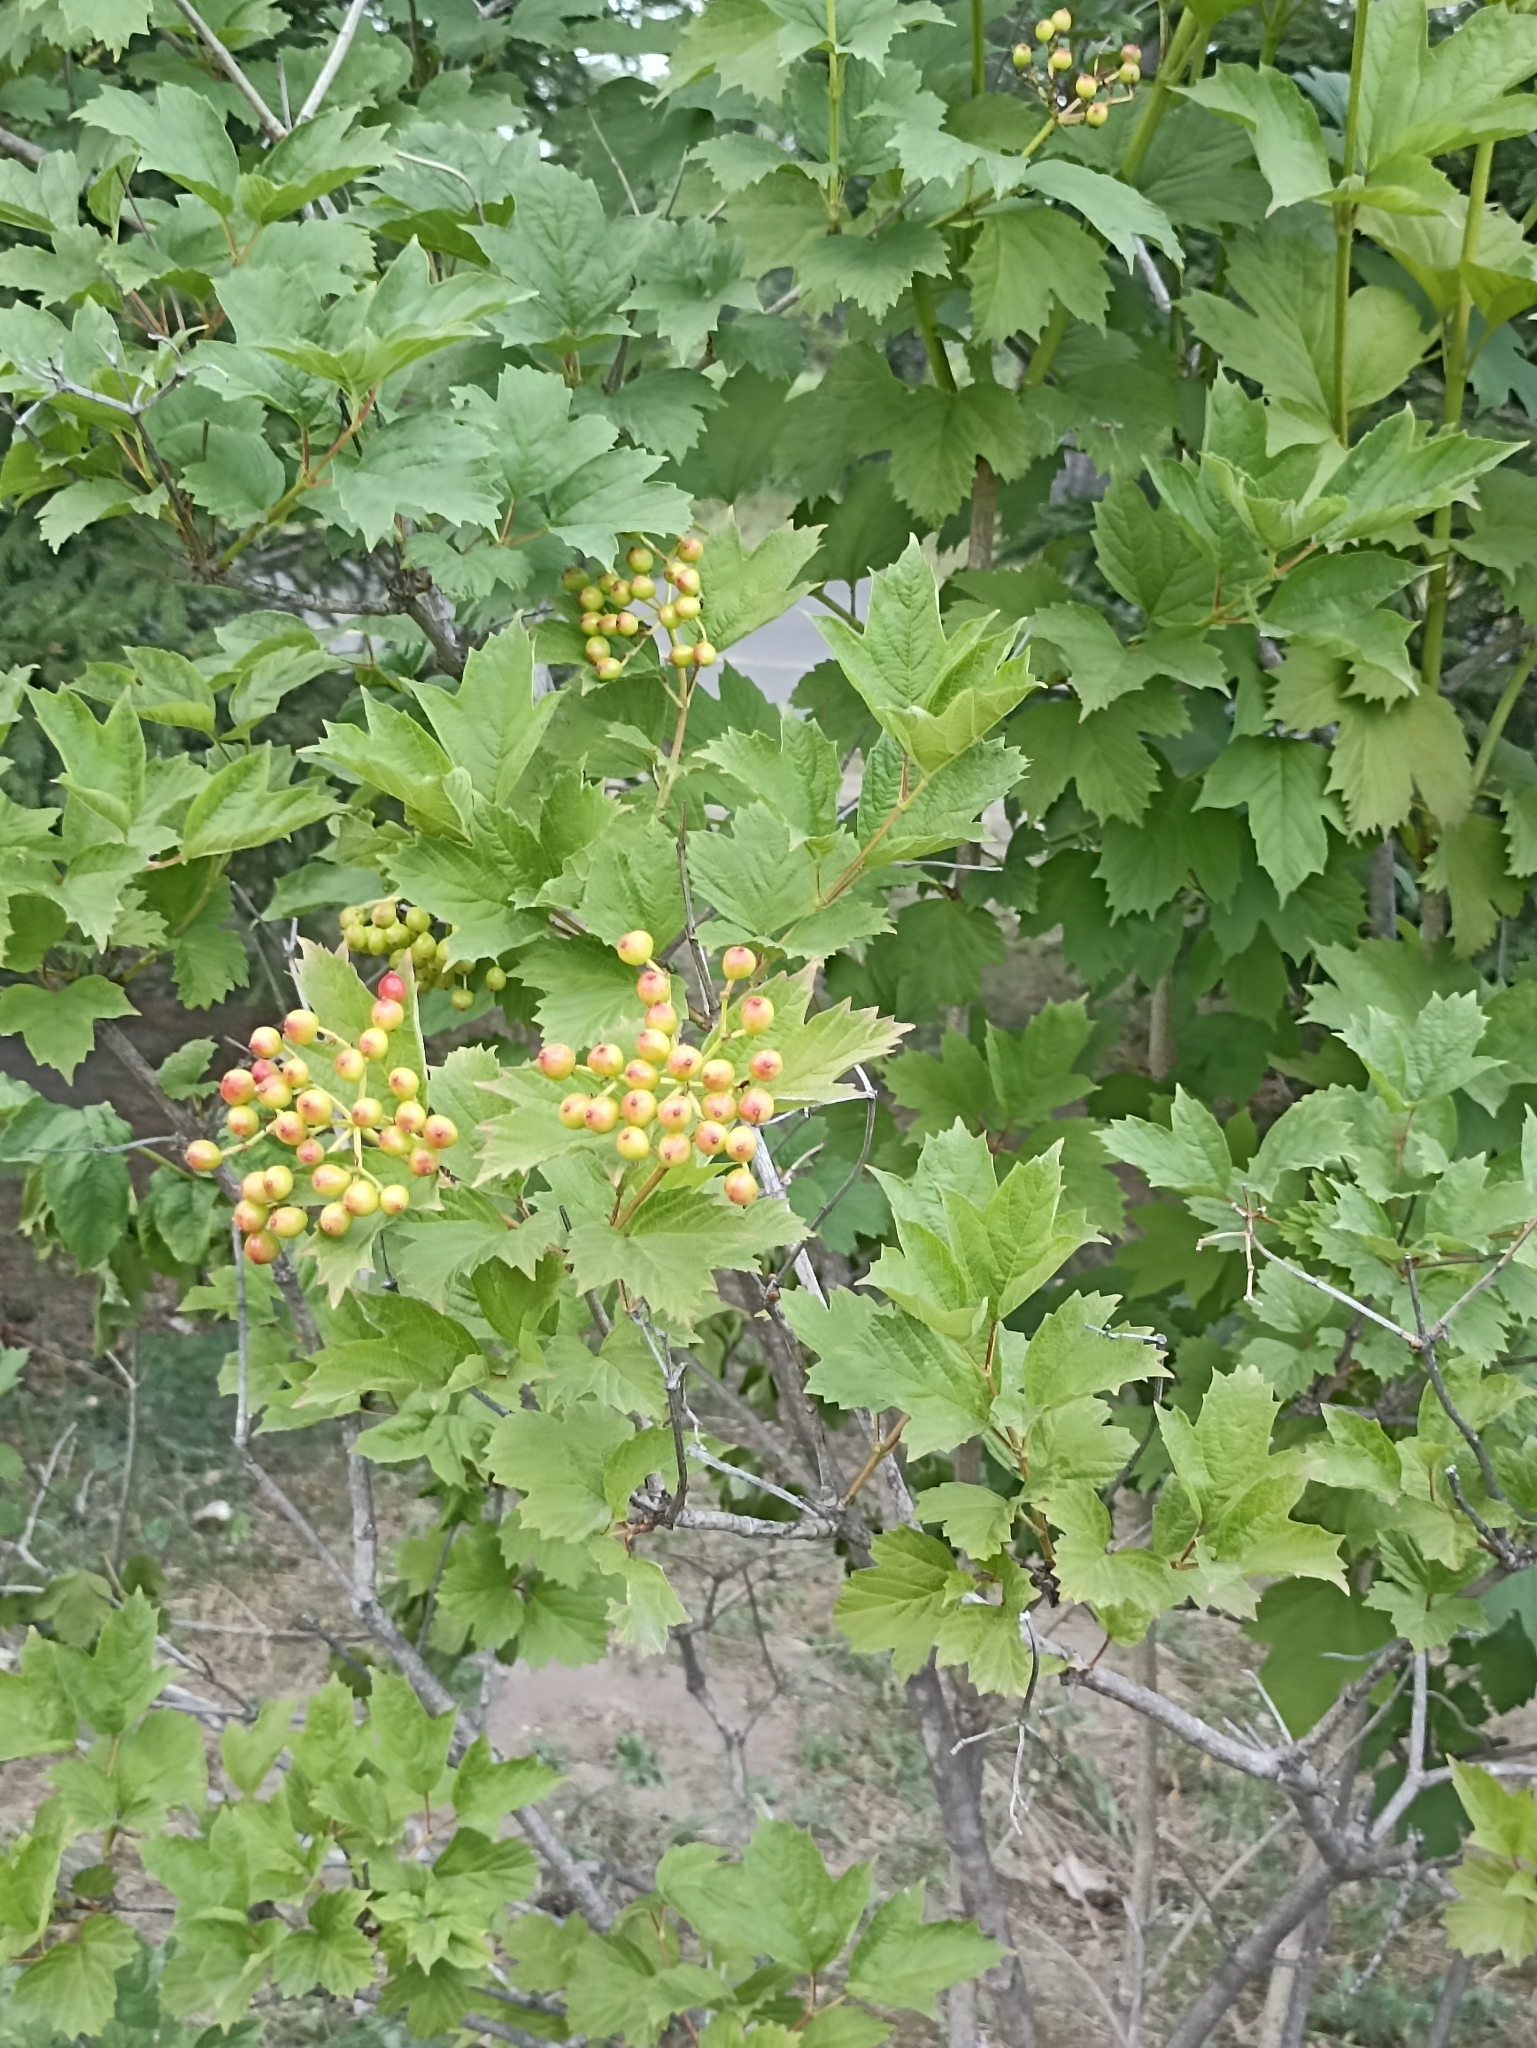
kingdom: Plantae
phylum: Tracheophyta
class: Magnoliopsida
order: Dipsacales
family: Viburnaceae
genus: Viburnum
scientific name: Viburnum opulus
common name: Guelder-rose
